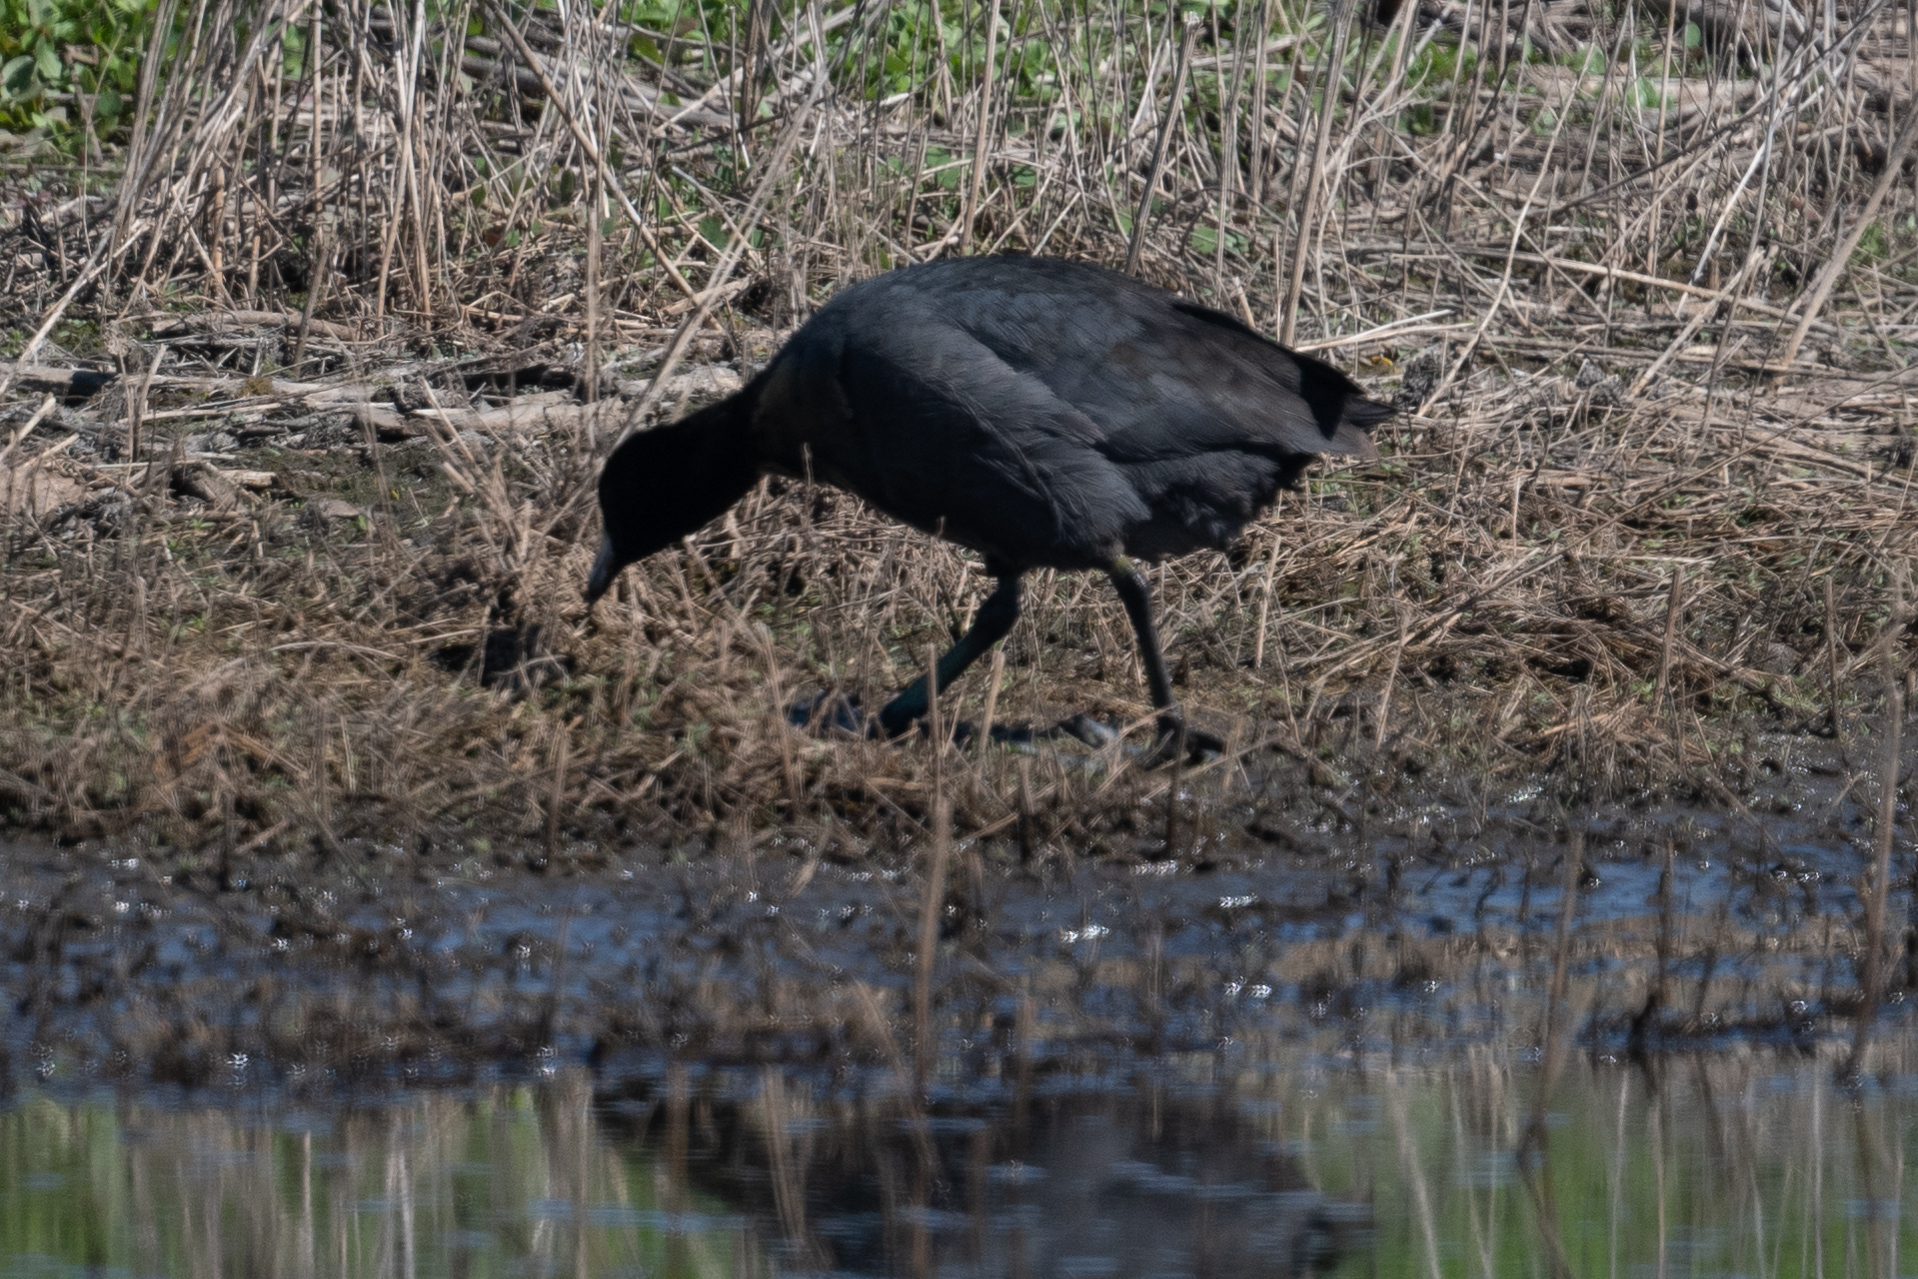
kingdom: Animalia
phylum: Chordata
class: Aves
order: Gruiformes
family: Rallidae
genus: Fulica
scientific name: Fulica americana
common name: American coot
